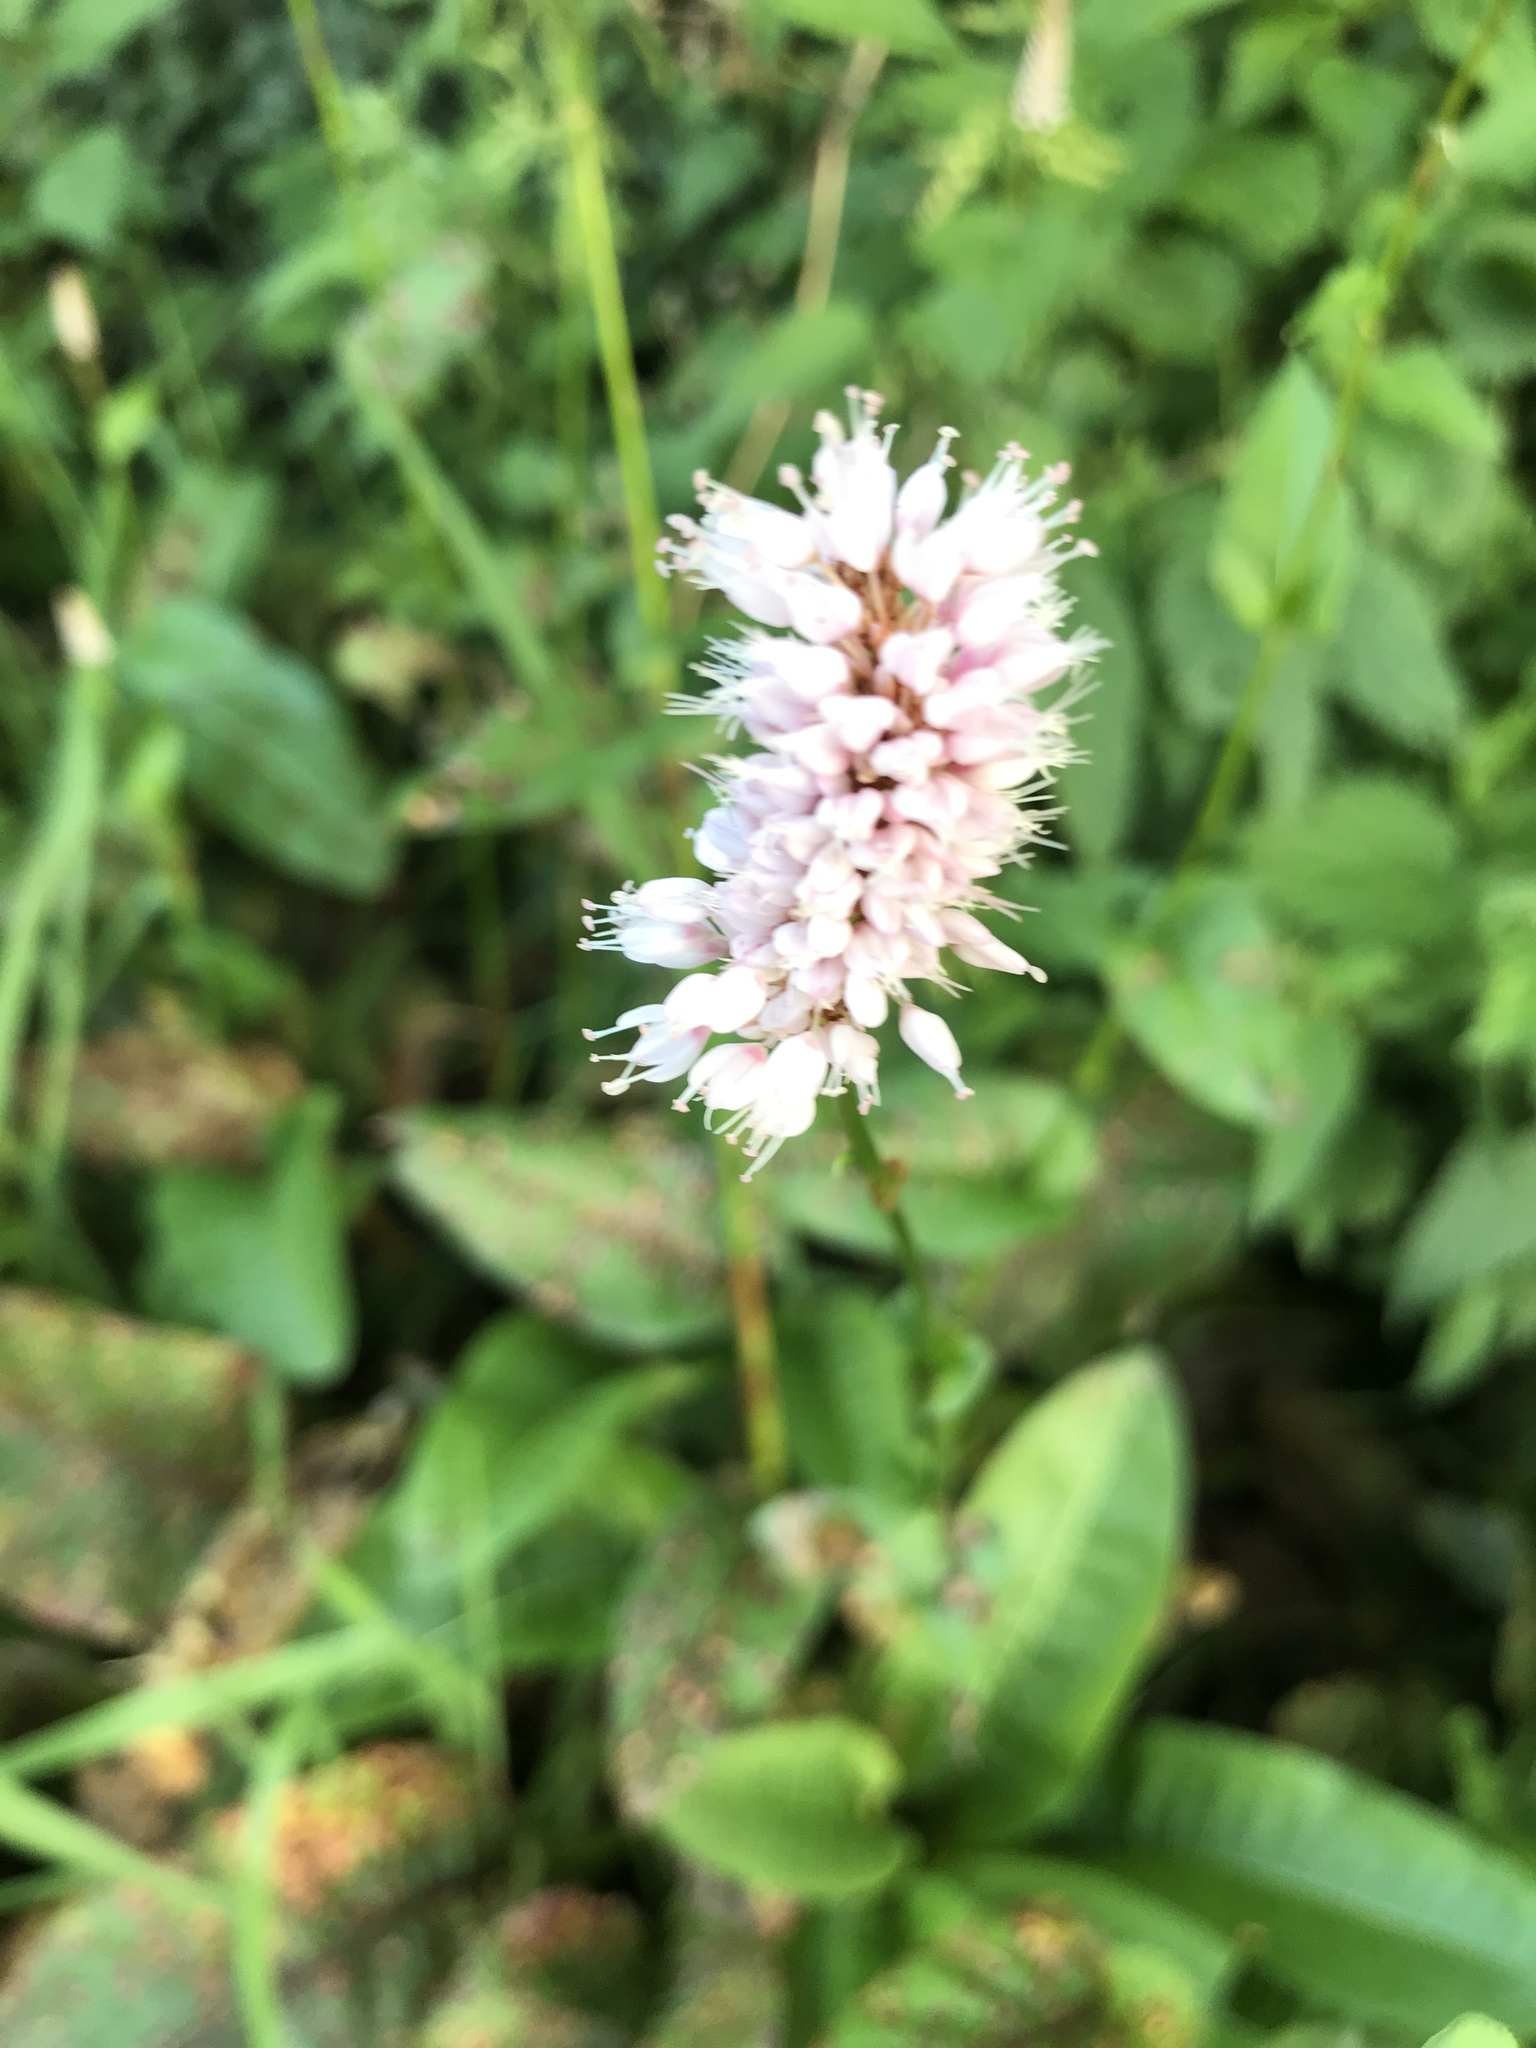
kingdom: Plantae
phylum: Tracheophyta
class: Magnoliopsida
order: Caryophyllales
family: Polygonaceae
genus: Bistorta
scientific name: Bistorta officinalis
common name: Common bistort
